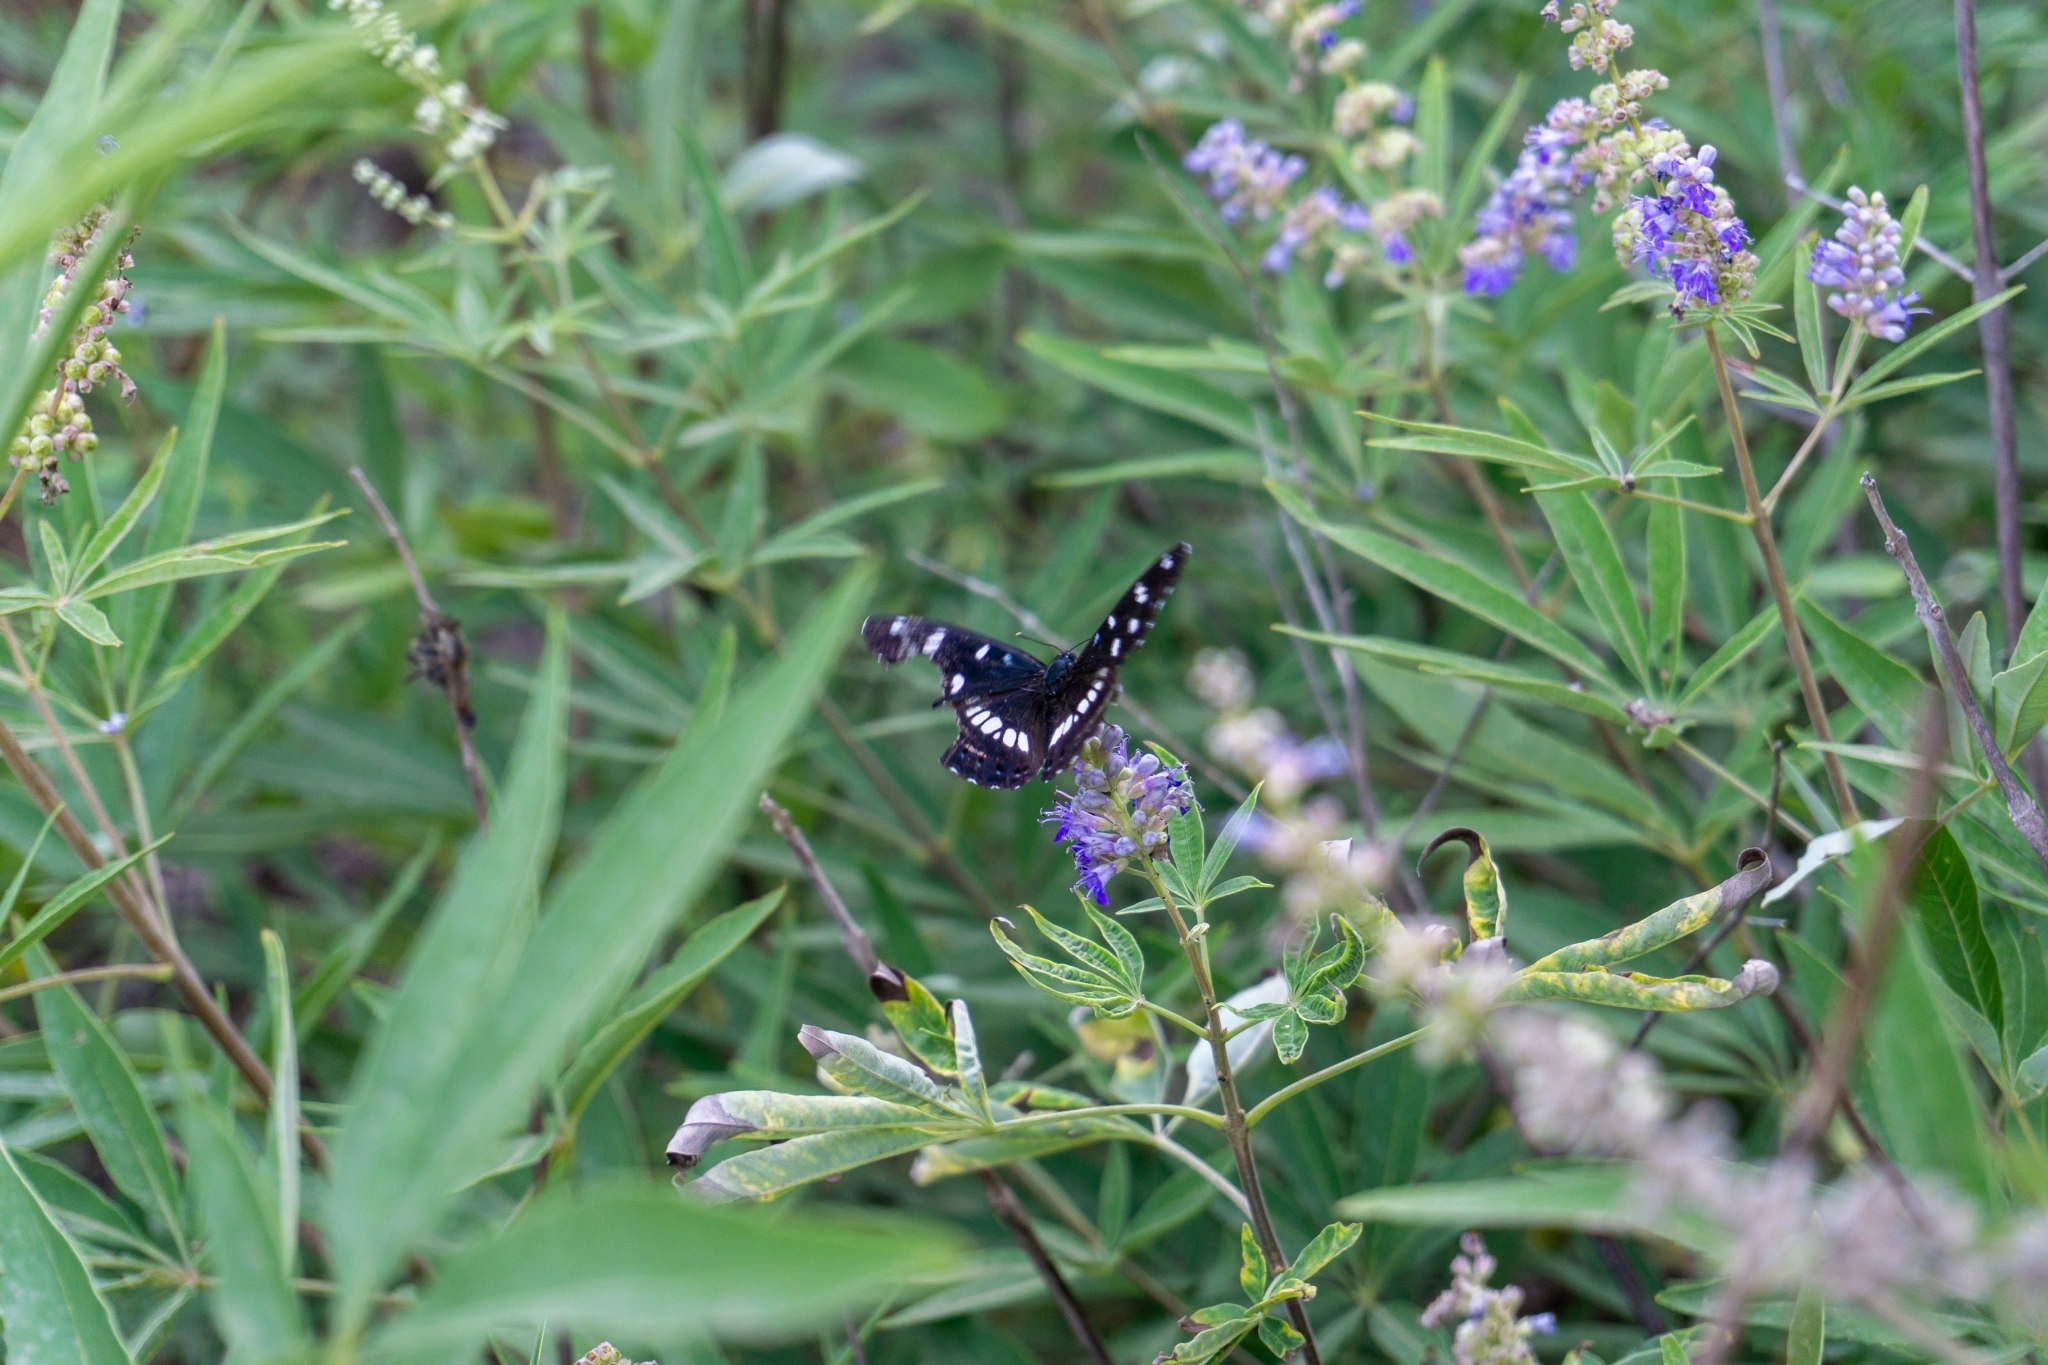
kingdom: Animalia
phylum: Arthropoda
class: Insecta
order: Lepidoptera
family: Nymphalidae
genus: Limenitis
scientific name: Limenitis reducta
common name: Southern white admiral
